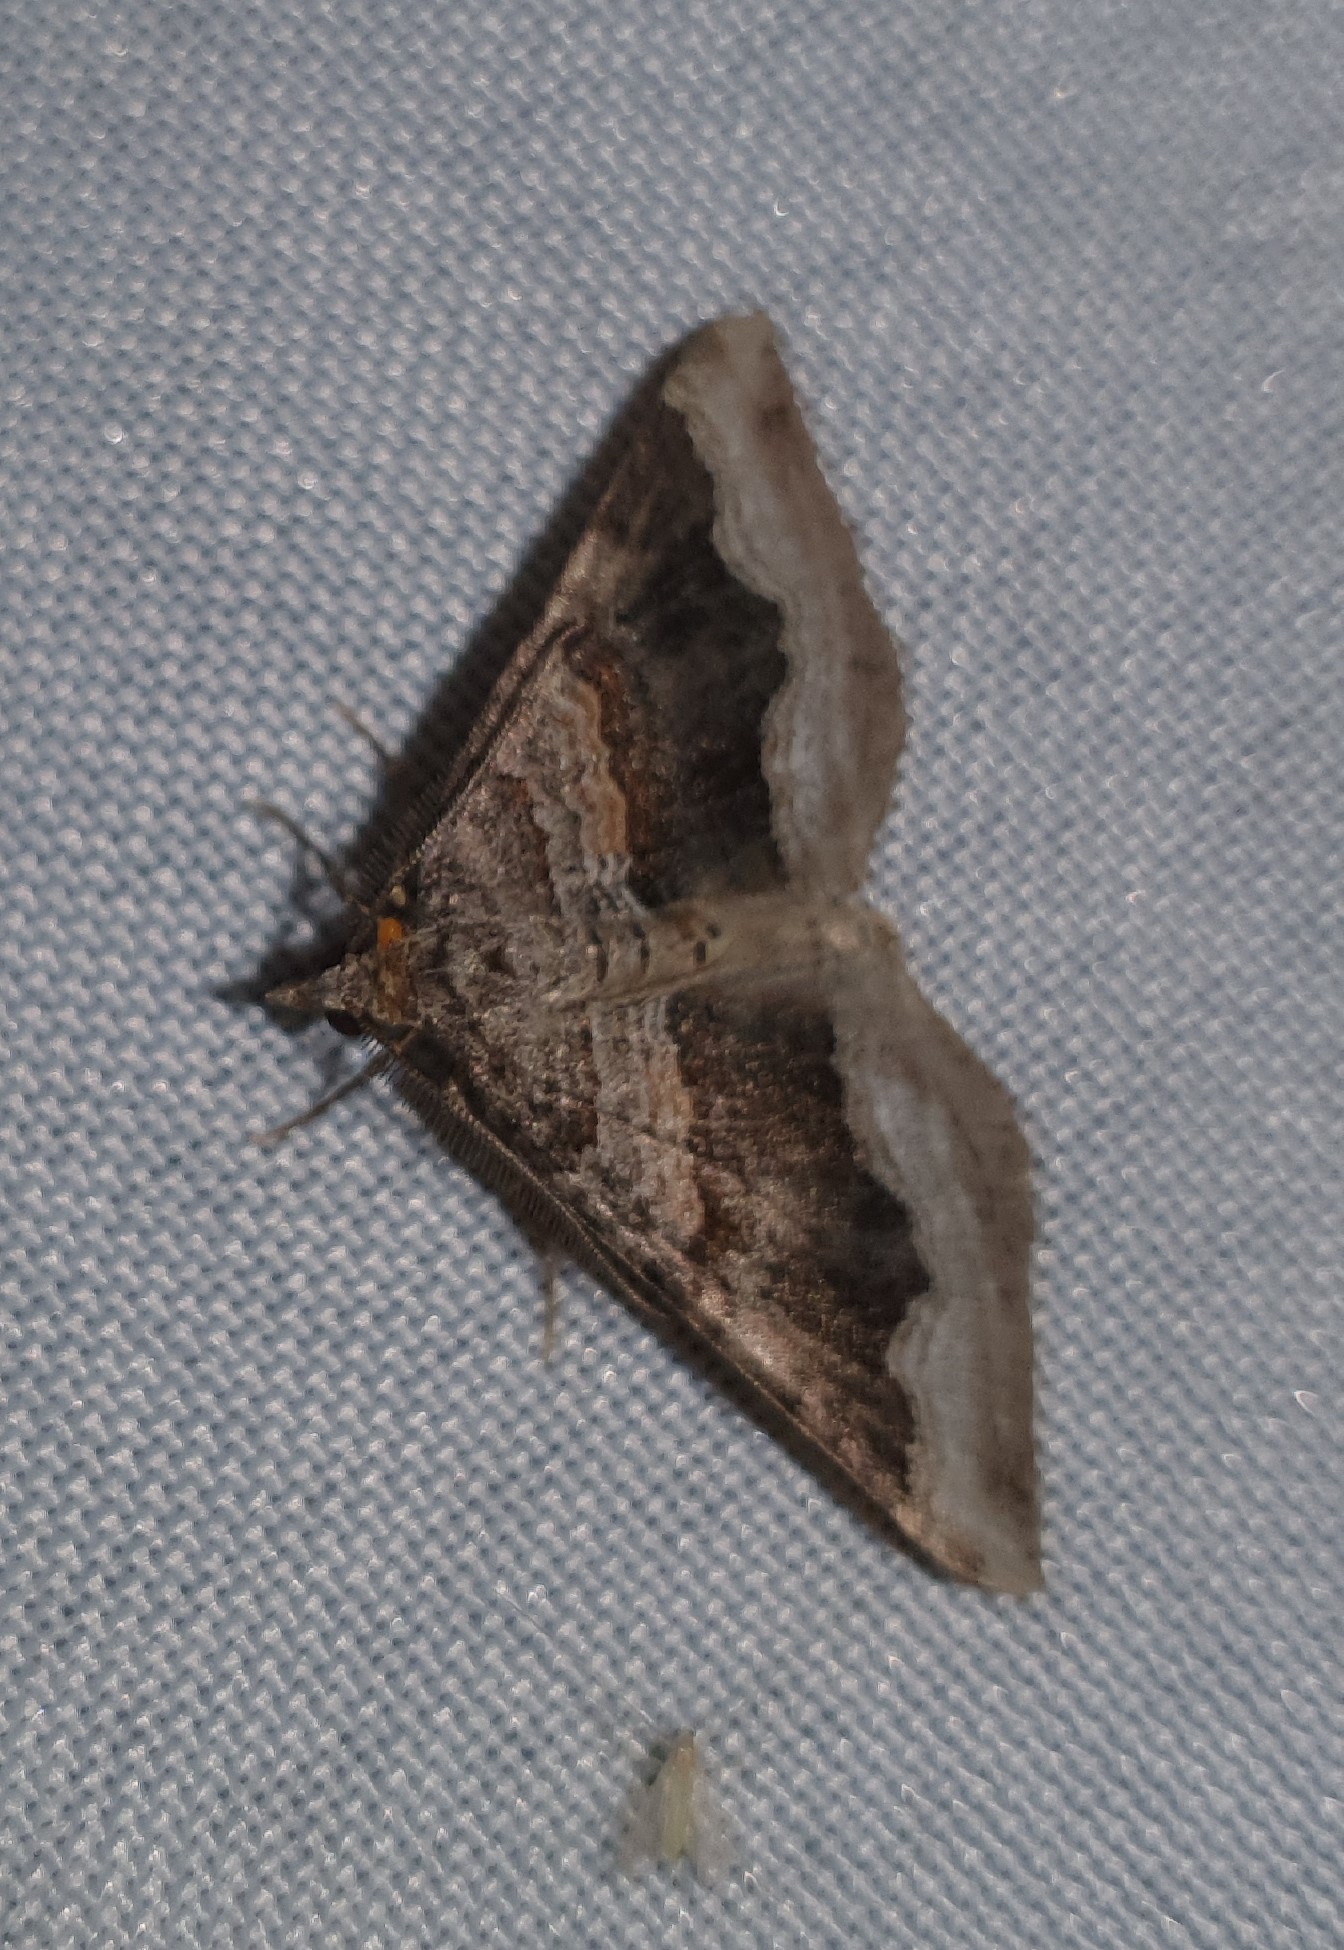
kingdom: Animalia
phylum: Arthropoda
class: Insecta
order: Lepidoptera
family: Geometridae
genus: Scotopteryx
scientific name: Scotopteryx coelinaria
